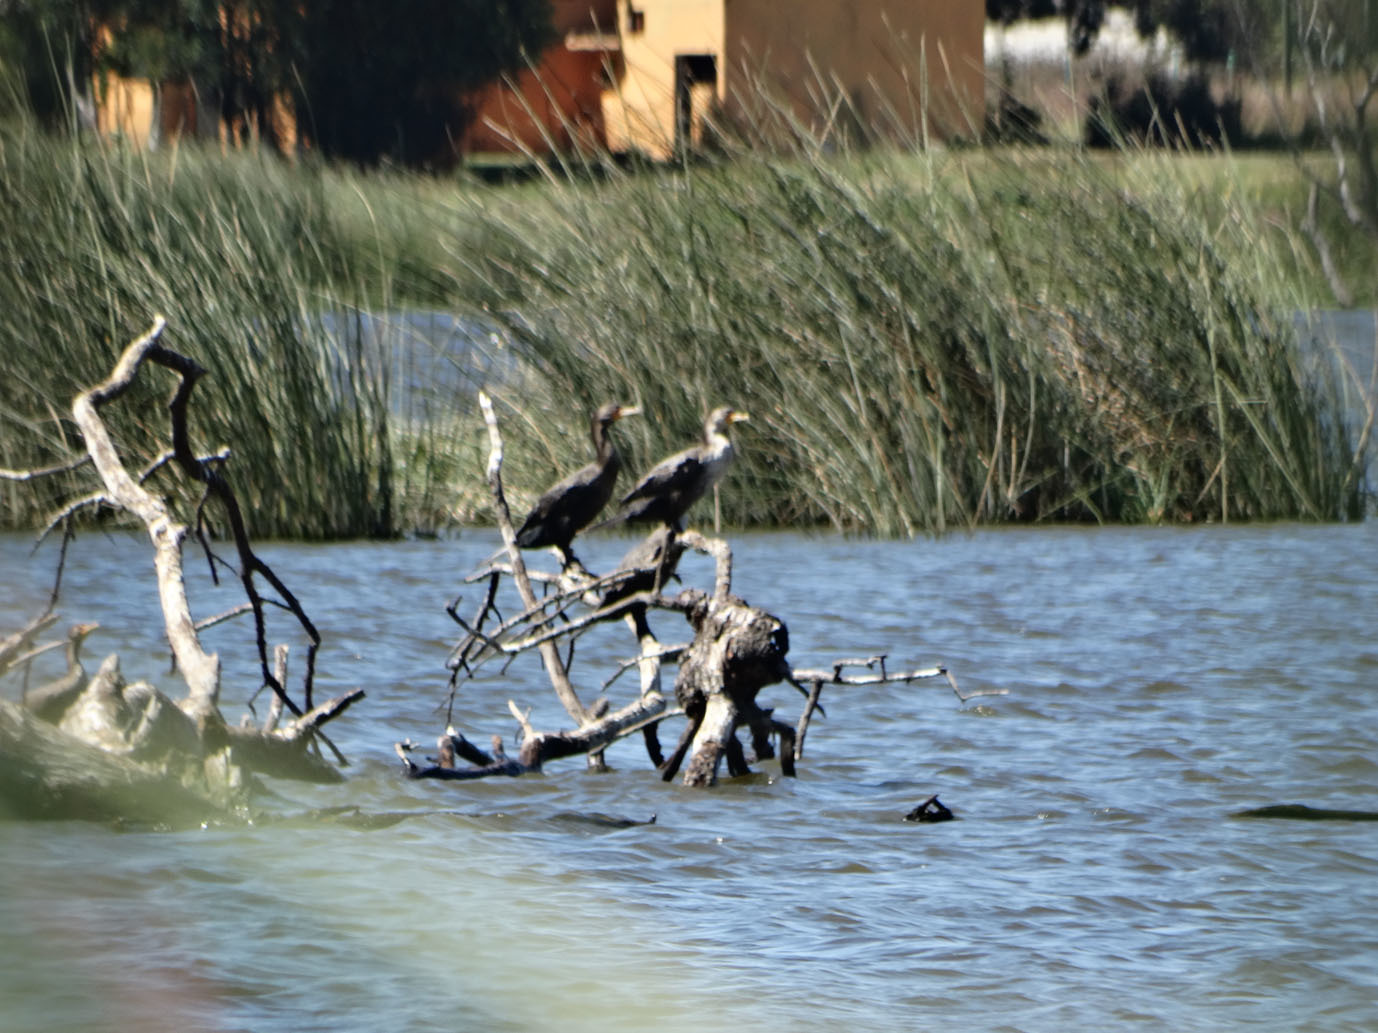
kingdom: Animalia
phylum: Chordata
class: Aves
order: Suliformes
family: Phalacrocoracidae
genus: Phalacrocorax
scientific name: Phalacrocorax auritus
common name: Double-crested cormorant
